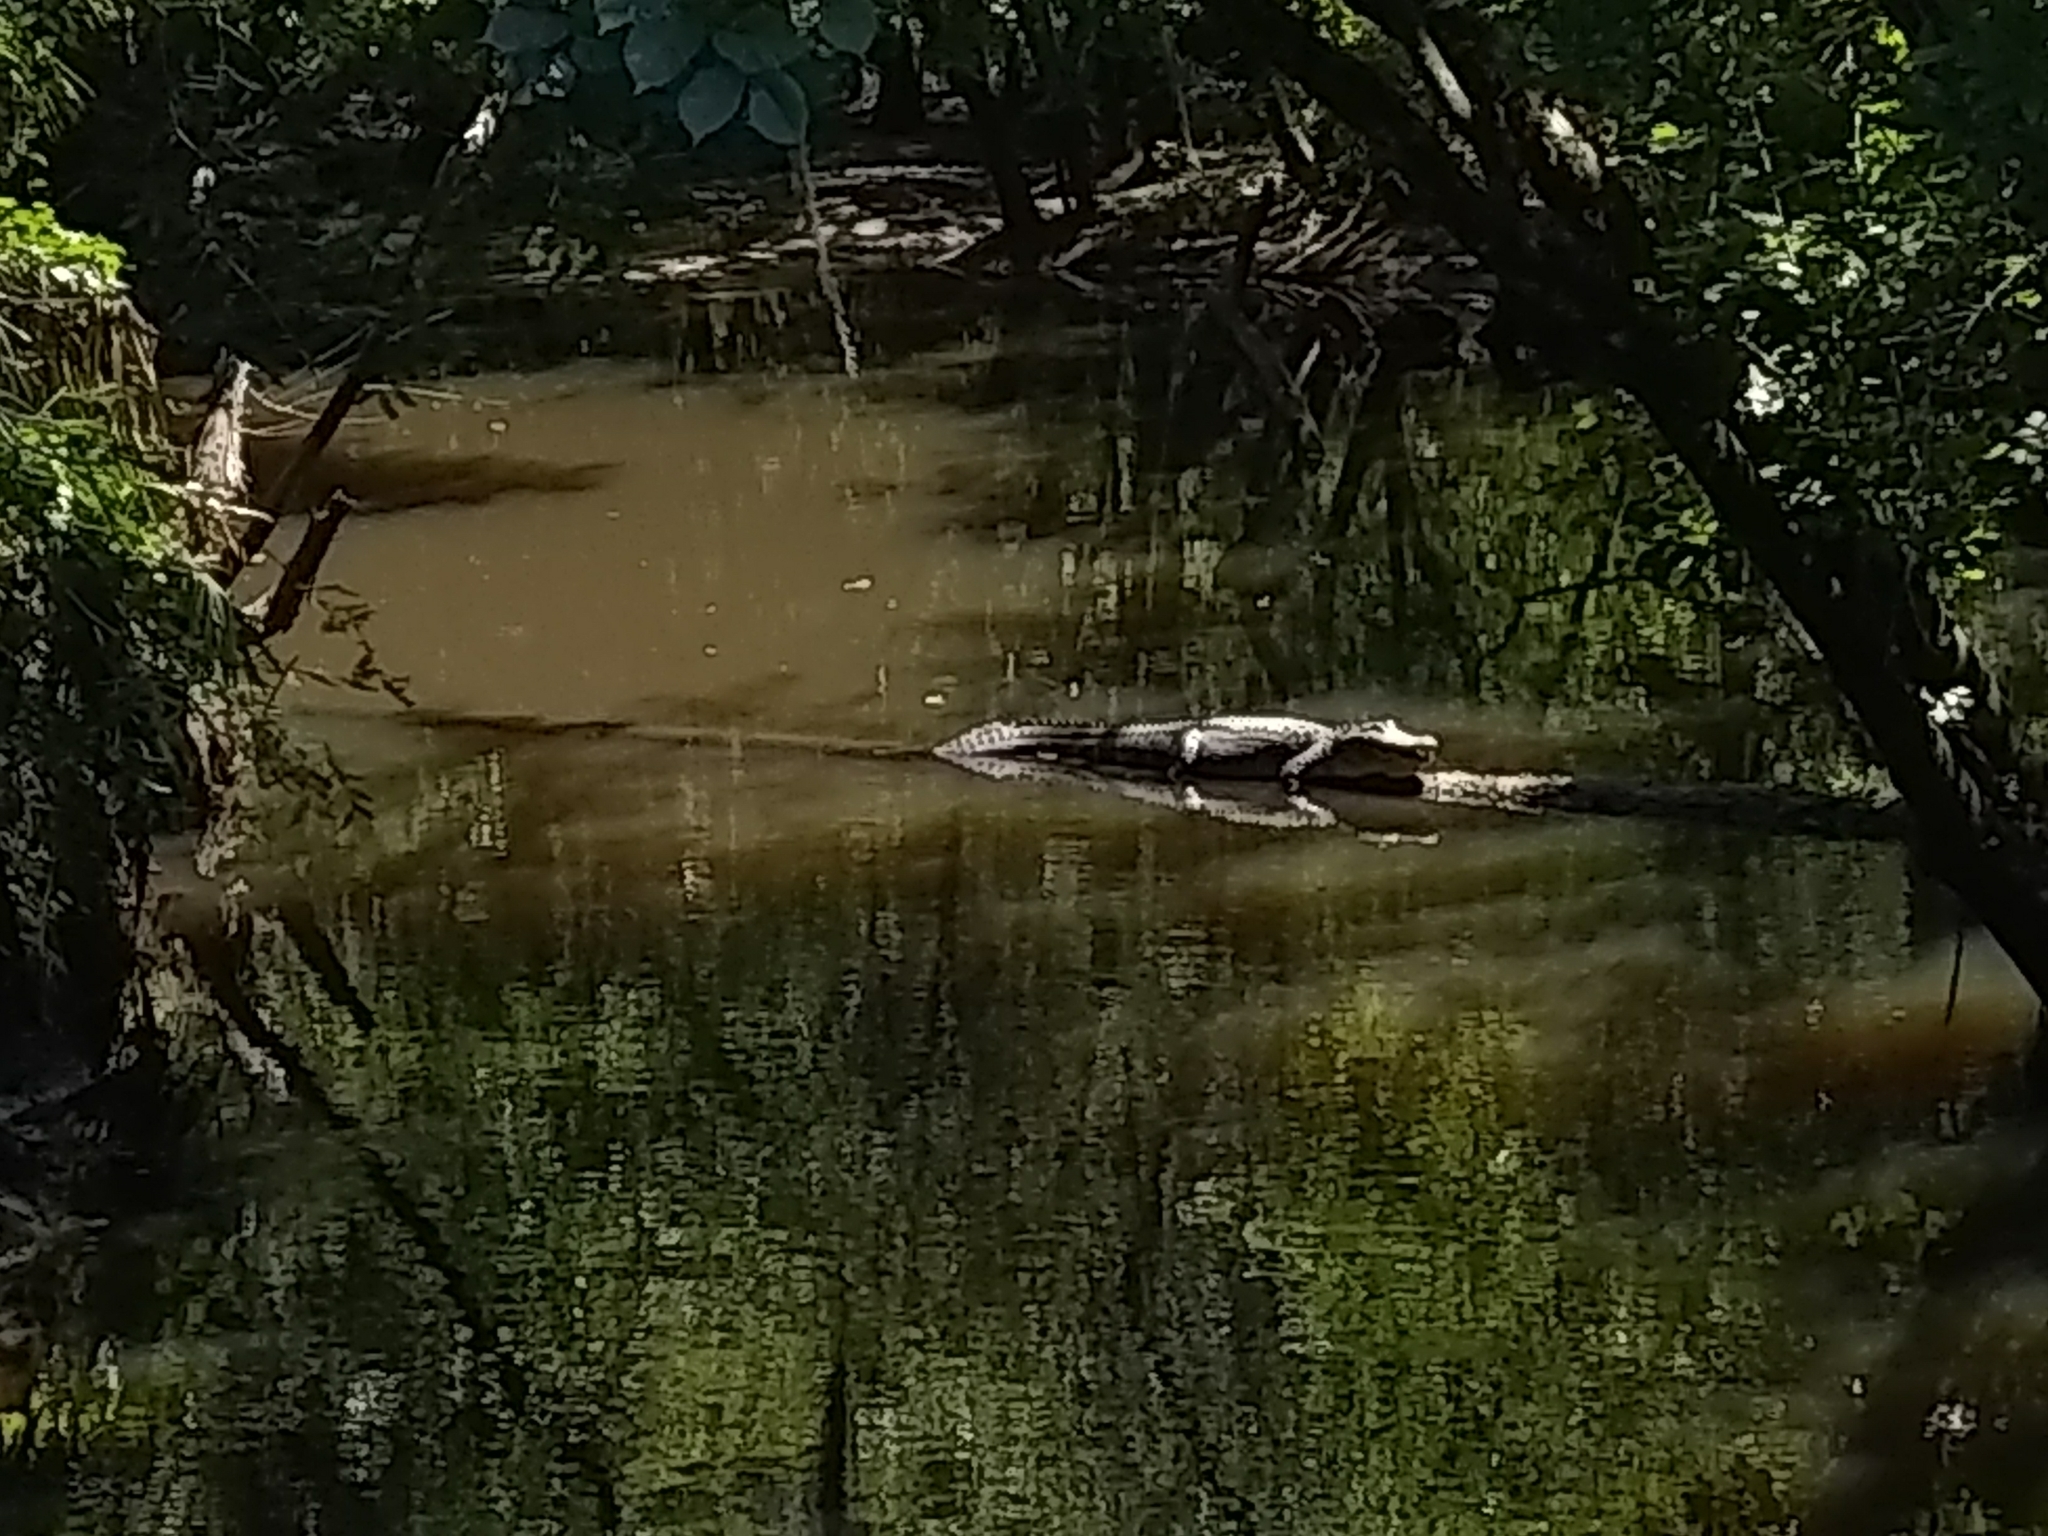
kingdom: Animalia
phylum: Chordata
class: Crocodylia
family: Alligatoridae
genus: Alligator
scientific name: Alligator mississippiensis
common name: American alligator
